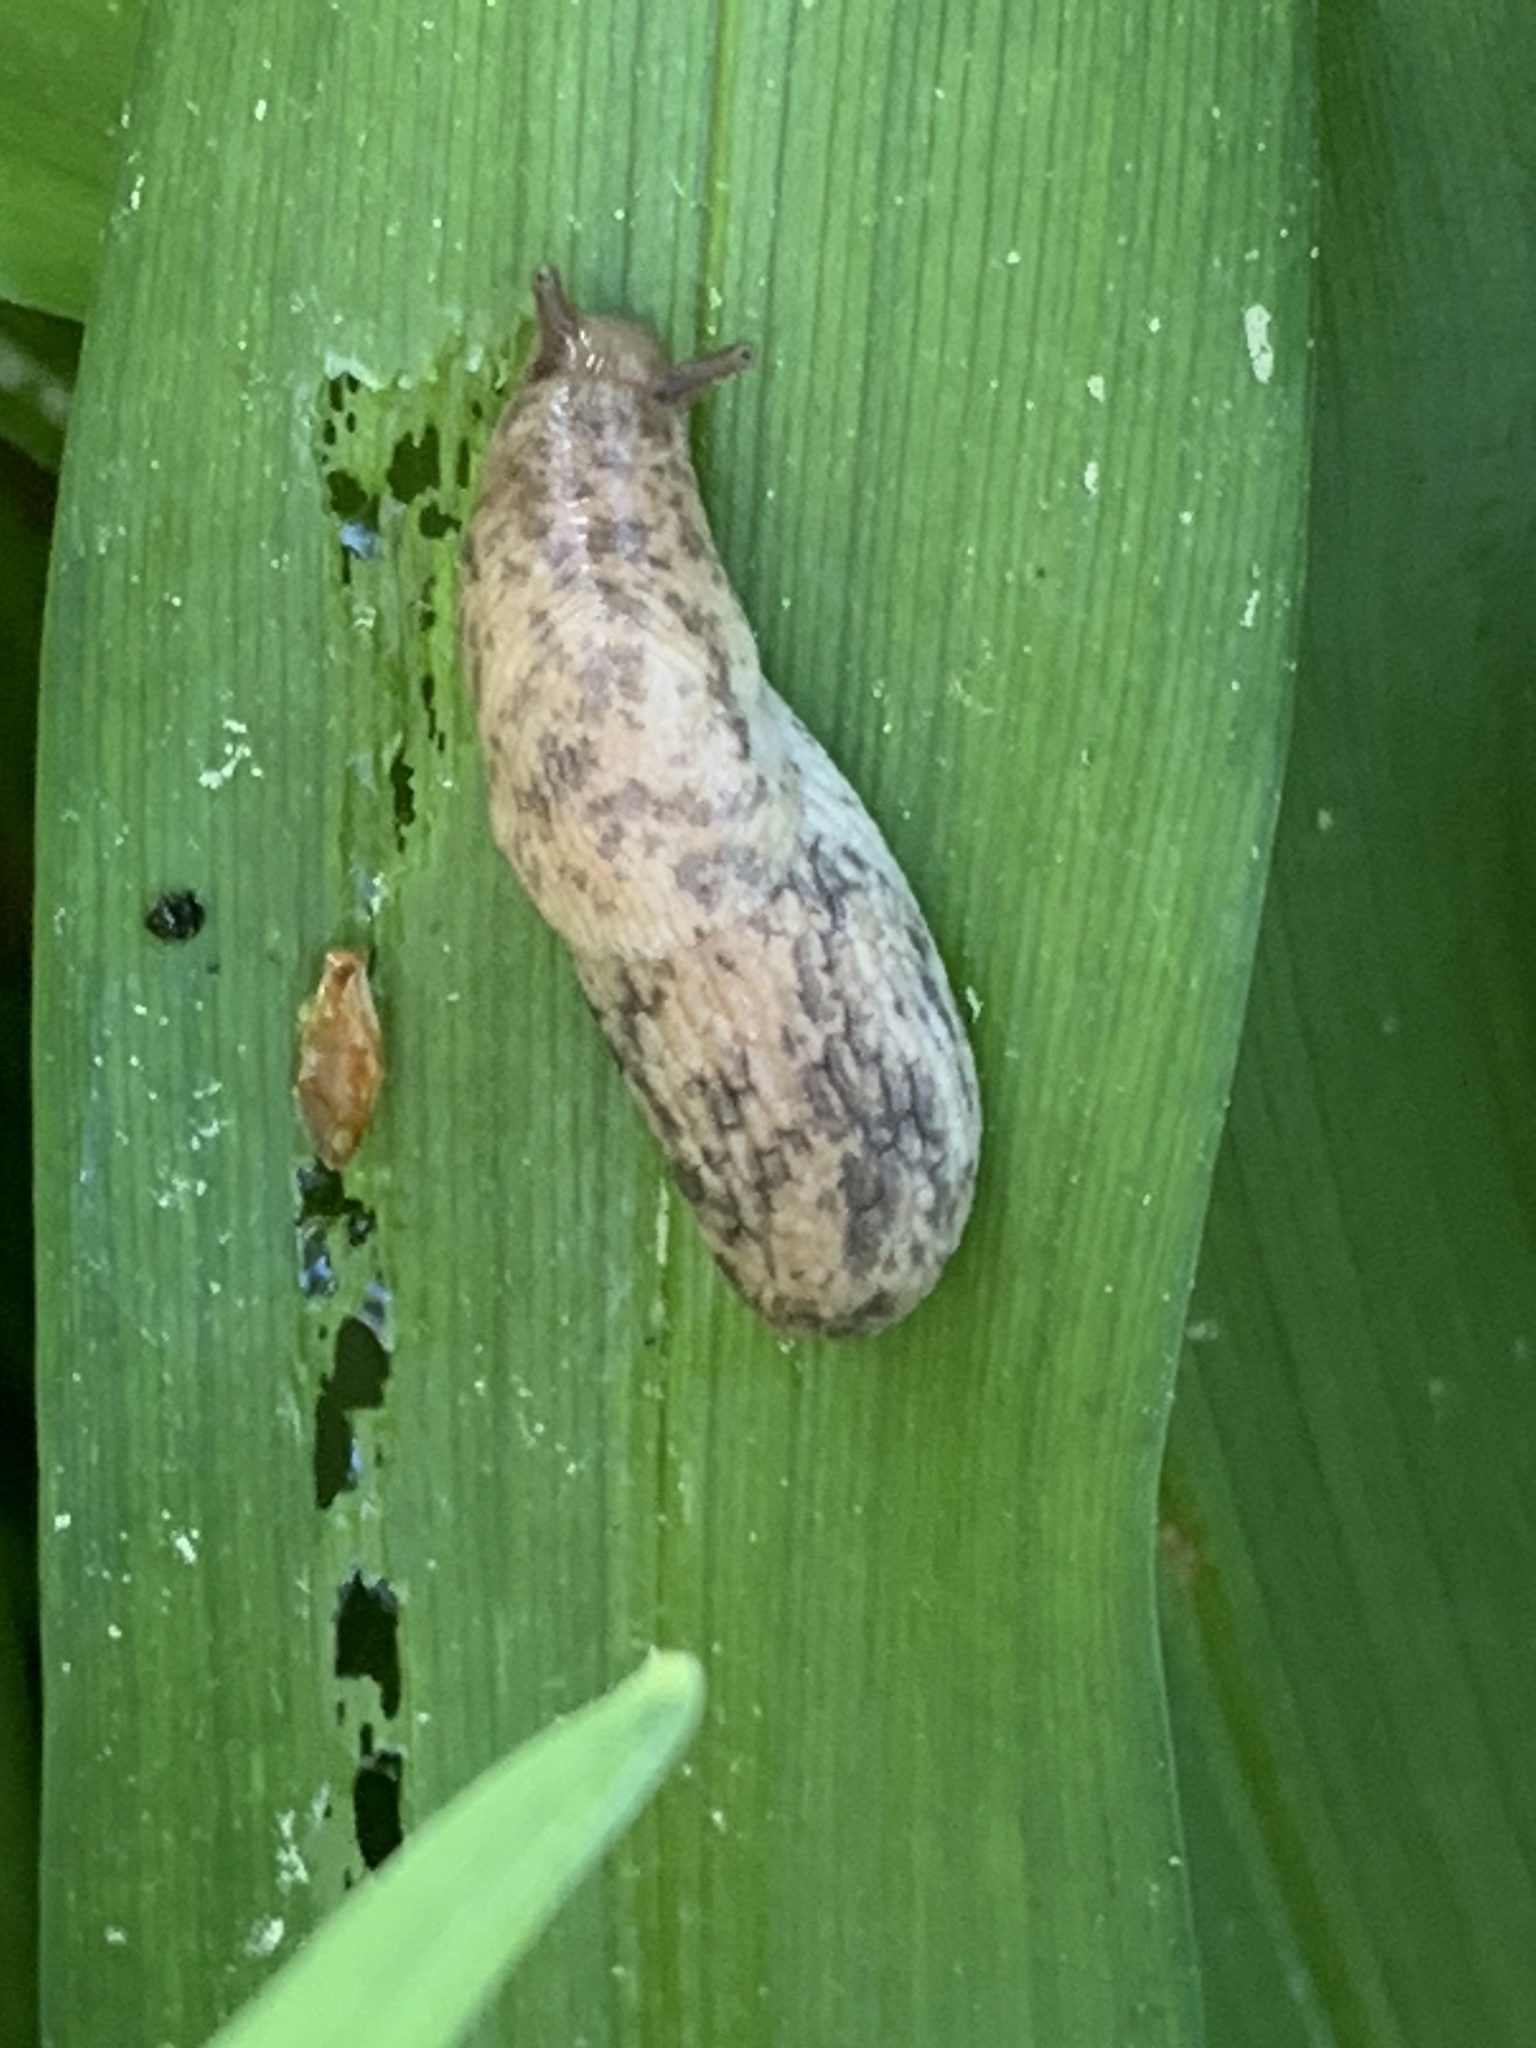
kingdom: Animalia
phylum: Mollusca
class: Gastropoda
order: Stylommatophora
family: Agriolimacidae
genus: Deroceras
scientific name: Deroceras reticulatum
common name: Gray field slug
